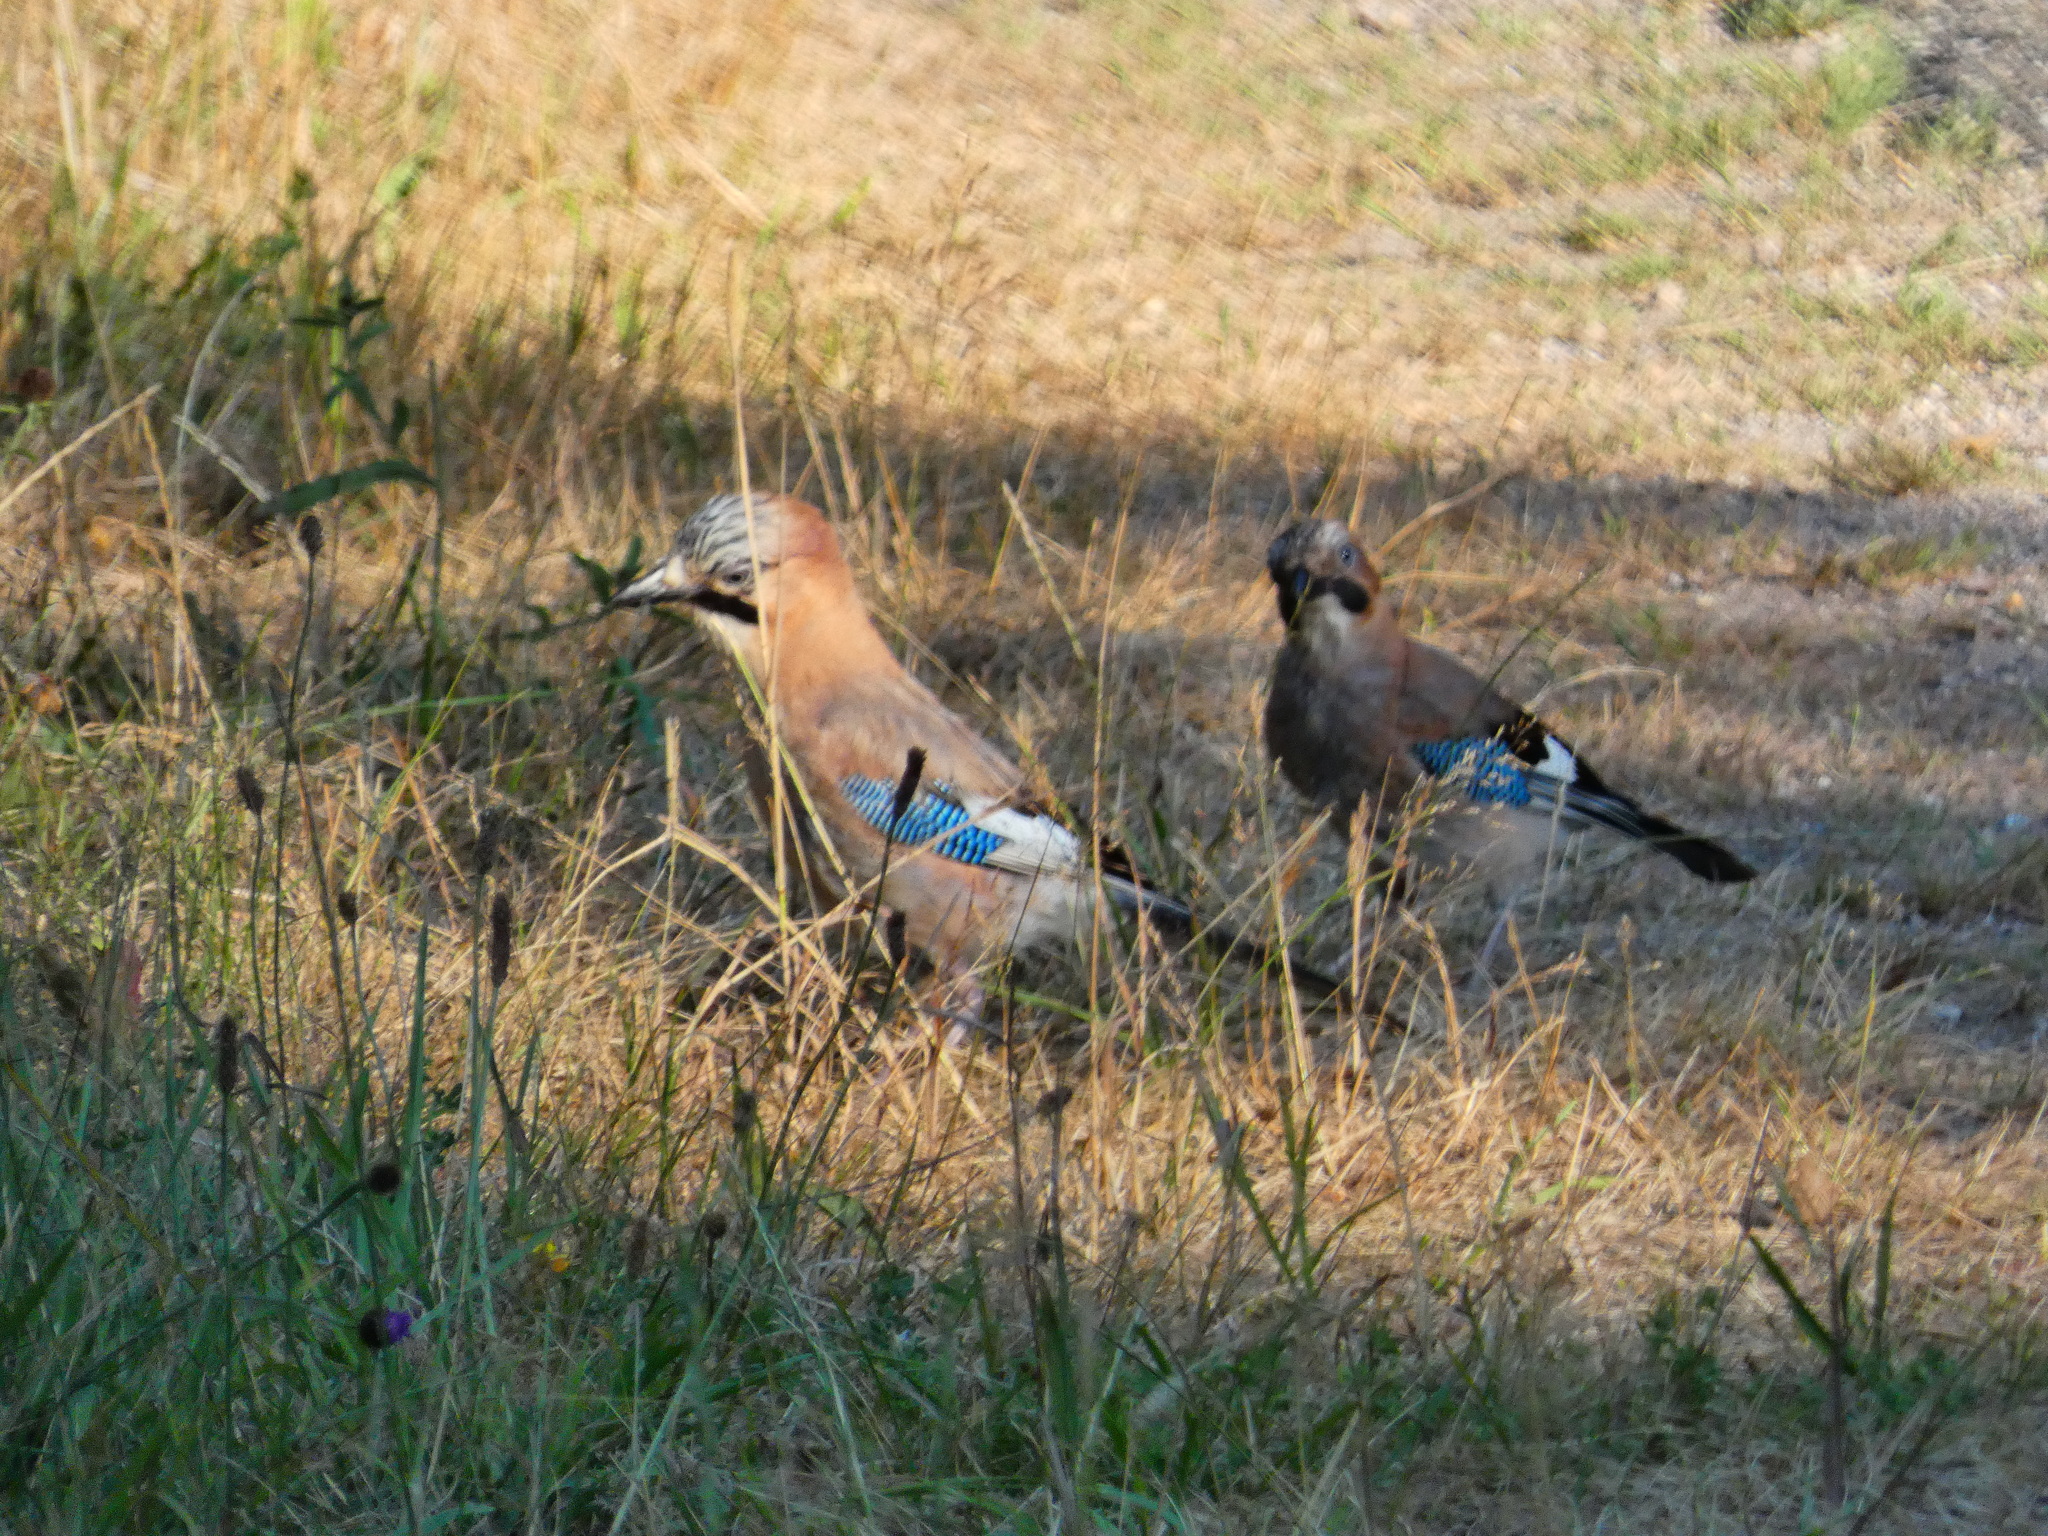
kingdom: Animalia
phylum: Chordata
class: Aves
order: Passeriformes
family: Corvidae
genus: Garrulus
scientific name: Garrulus glandarius
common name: Eurasian jay
